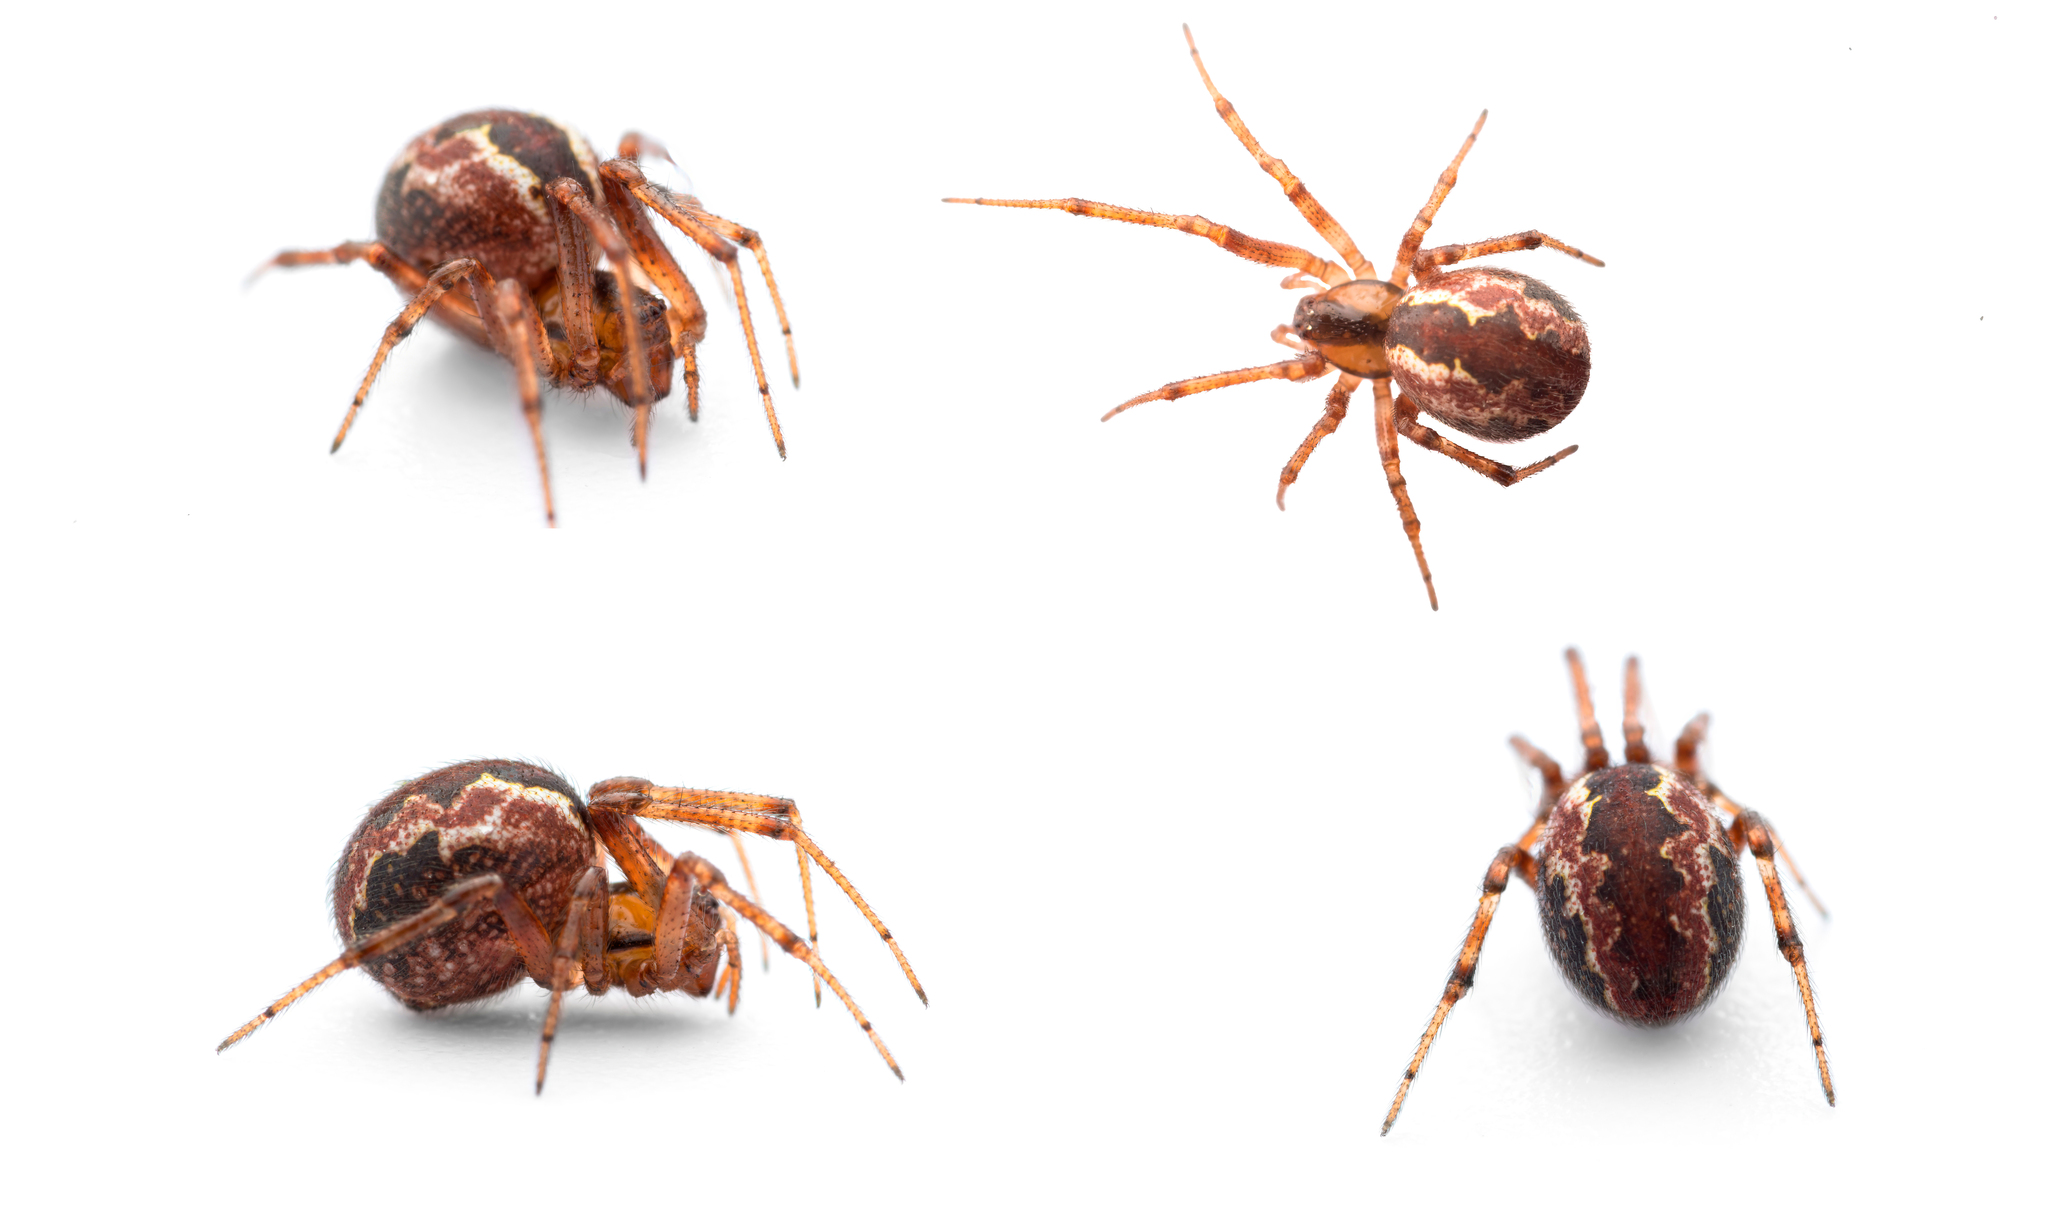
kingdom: Animalia
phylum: Arthropoda
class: Arachnida
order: Araneae
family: Theridiidae
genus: Kochiura
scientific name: Kochiura aulica
